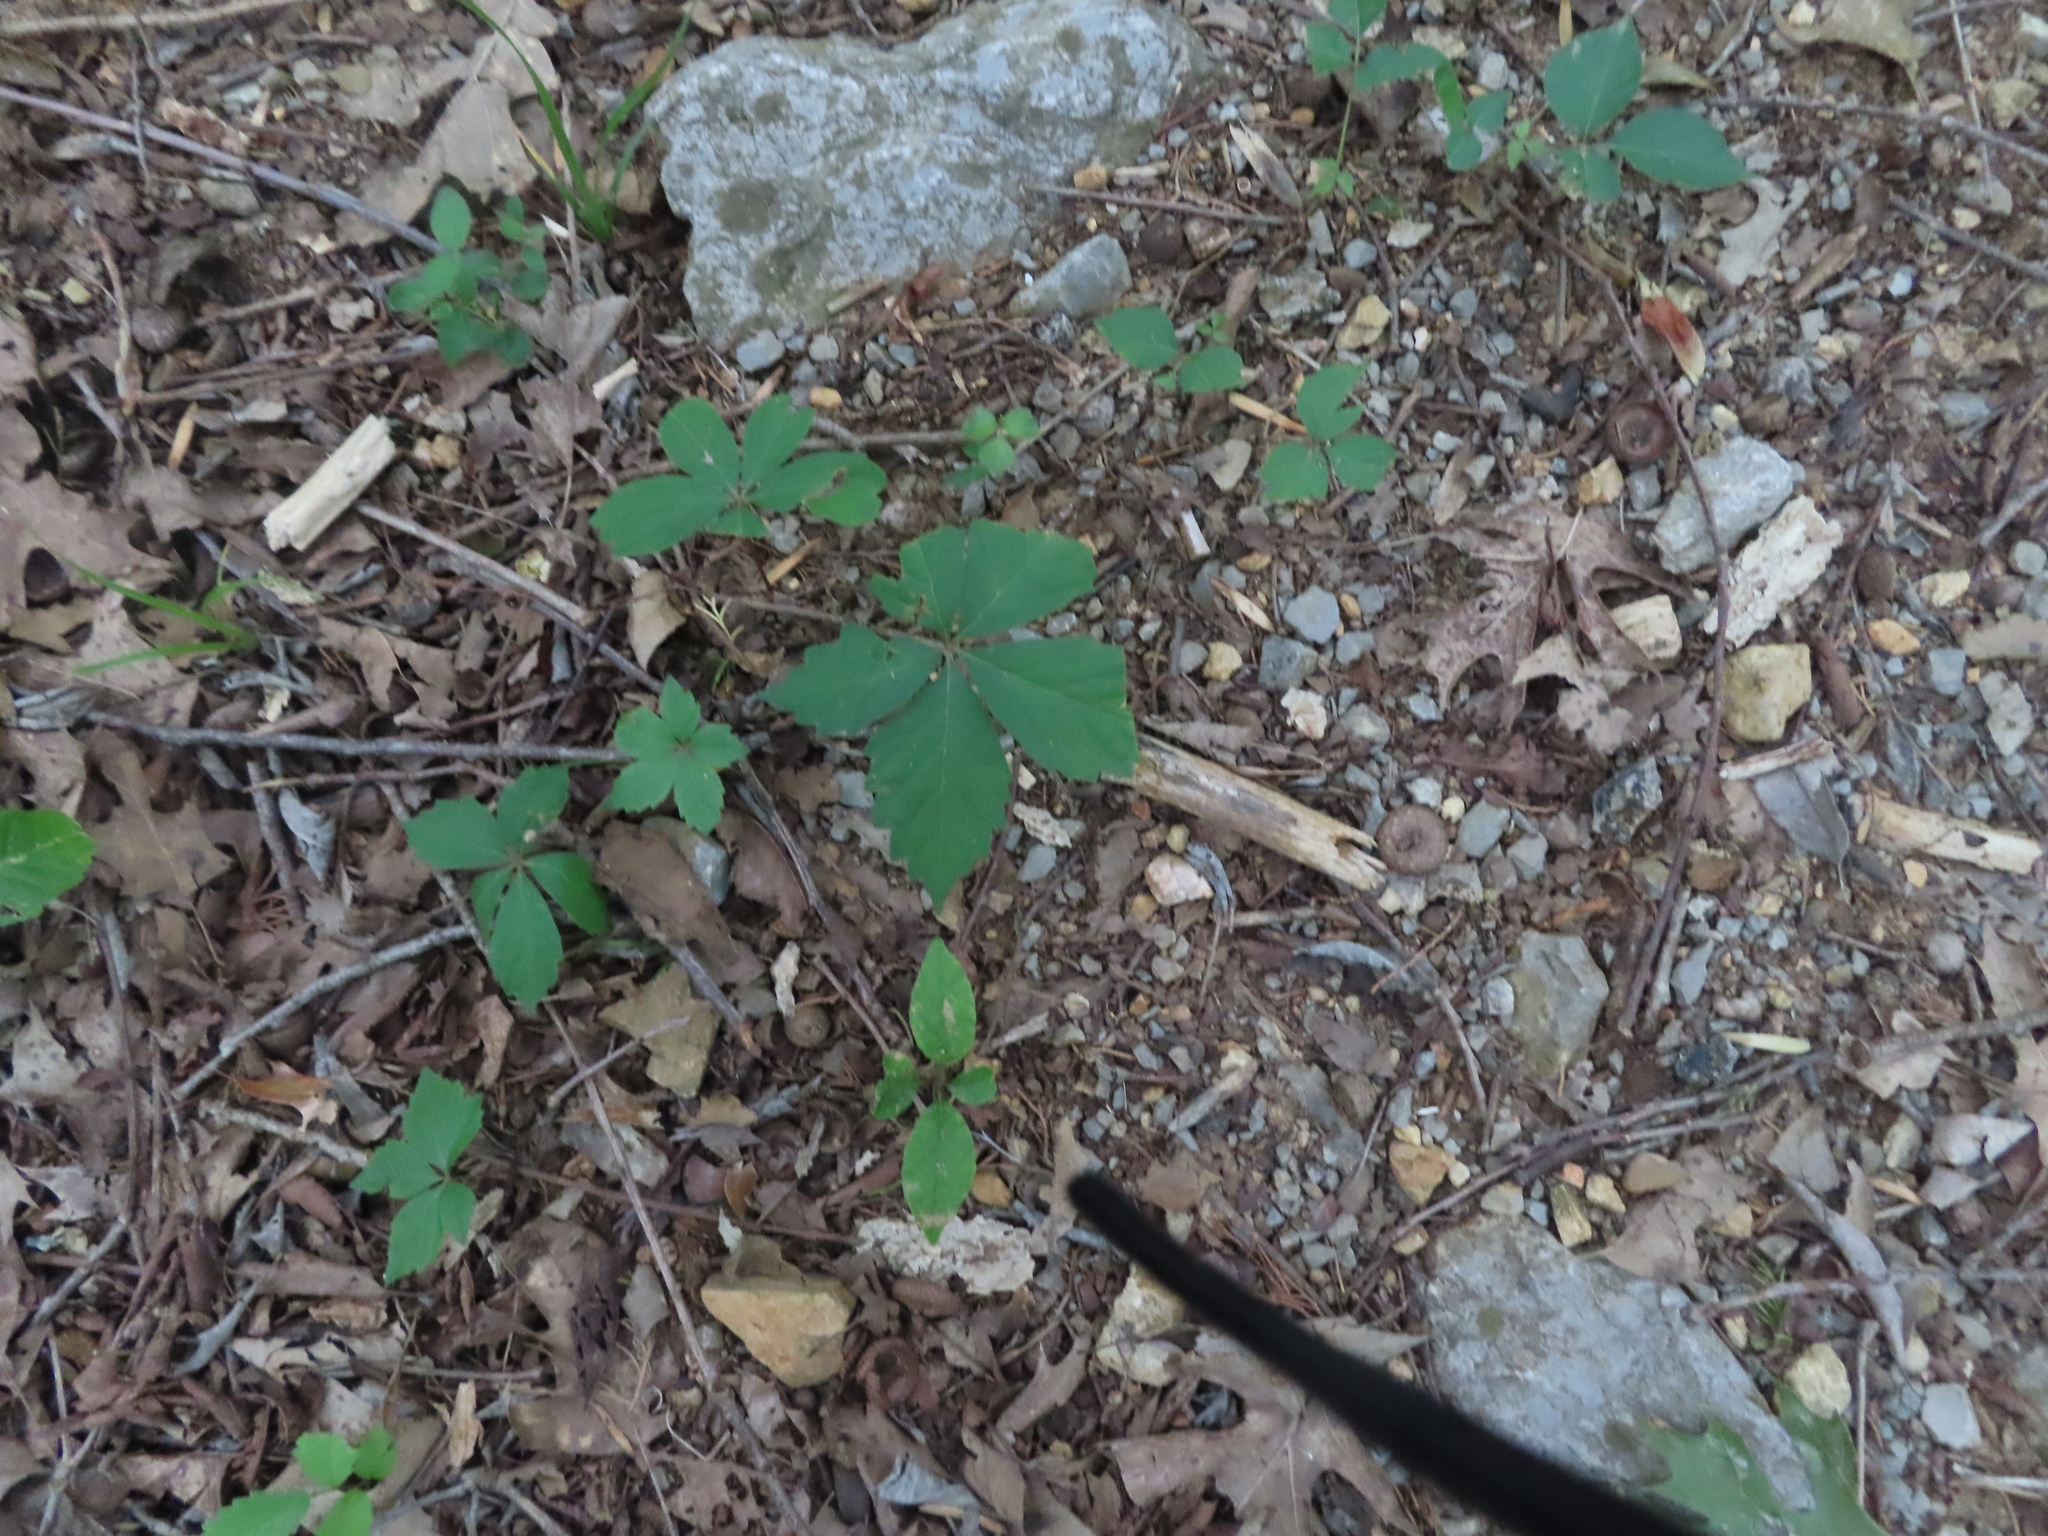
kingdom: Plantae
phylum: Tracheophyta
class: Magnoliopsida
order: Vitales
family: Vitaceae
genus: Parthenocissus
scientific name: Parthenocissus quinquefolia
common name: Virginia-creeper
